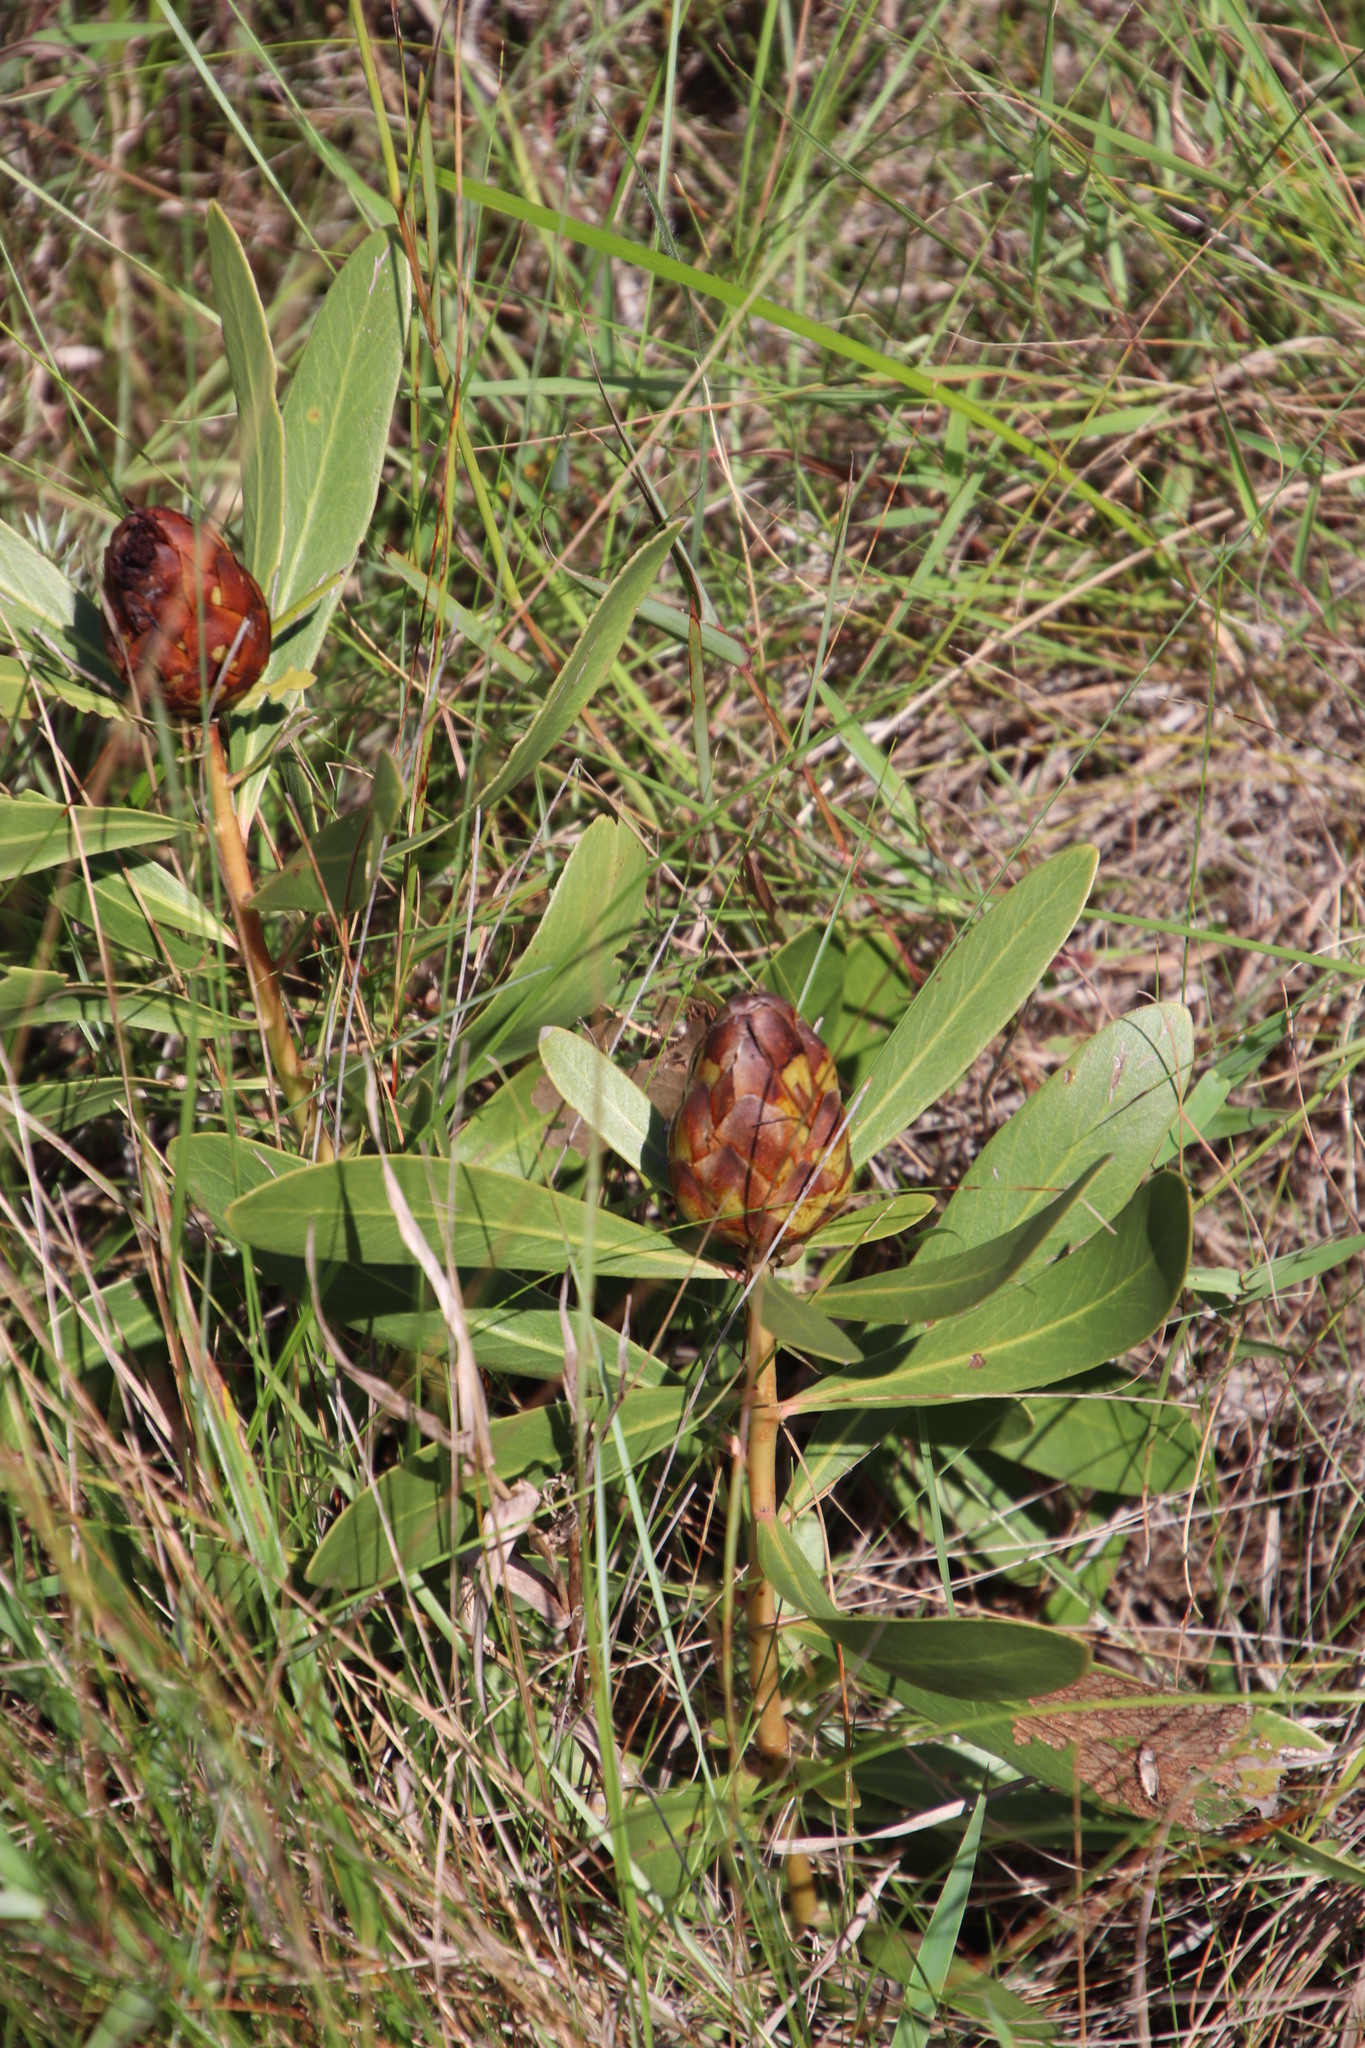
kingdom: Plantae
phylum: Tracheophyta
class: Magnoliopsida
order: Proteales
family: Proteaceae
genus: Protea
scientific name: Protea simplex
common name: Dwarf grassveld sugarbush
